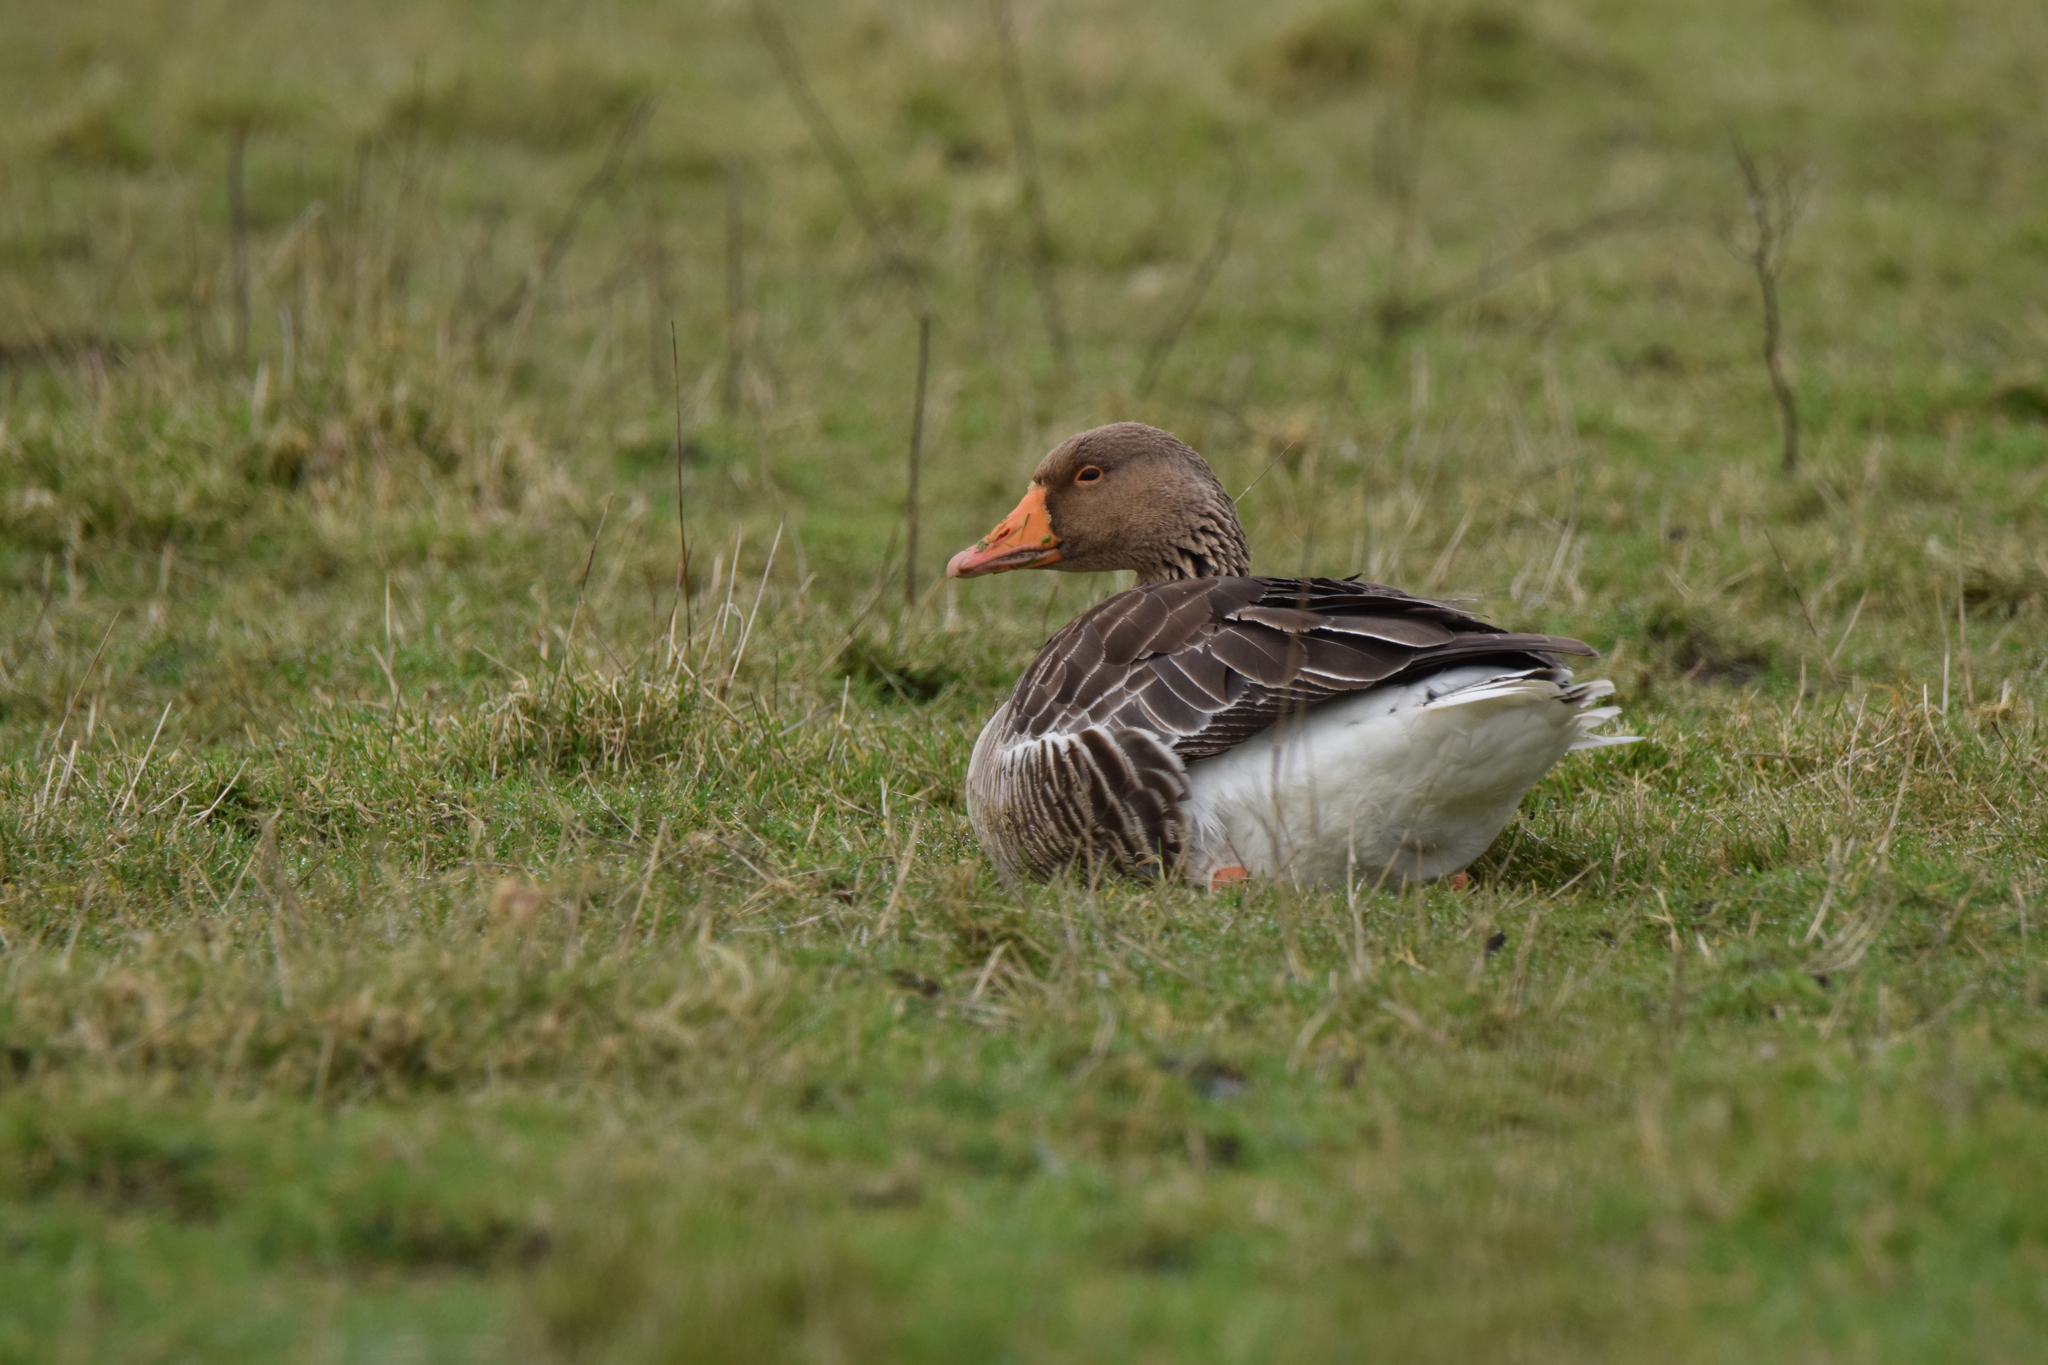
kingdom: Animalia
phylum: Chordata
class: Aves
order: Anseriformes
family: Anatidae
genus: Anser
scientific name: Anser anser
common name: Greylag goose
